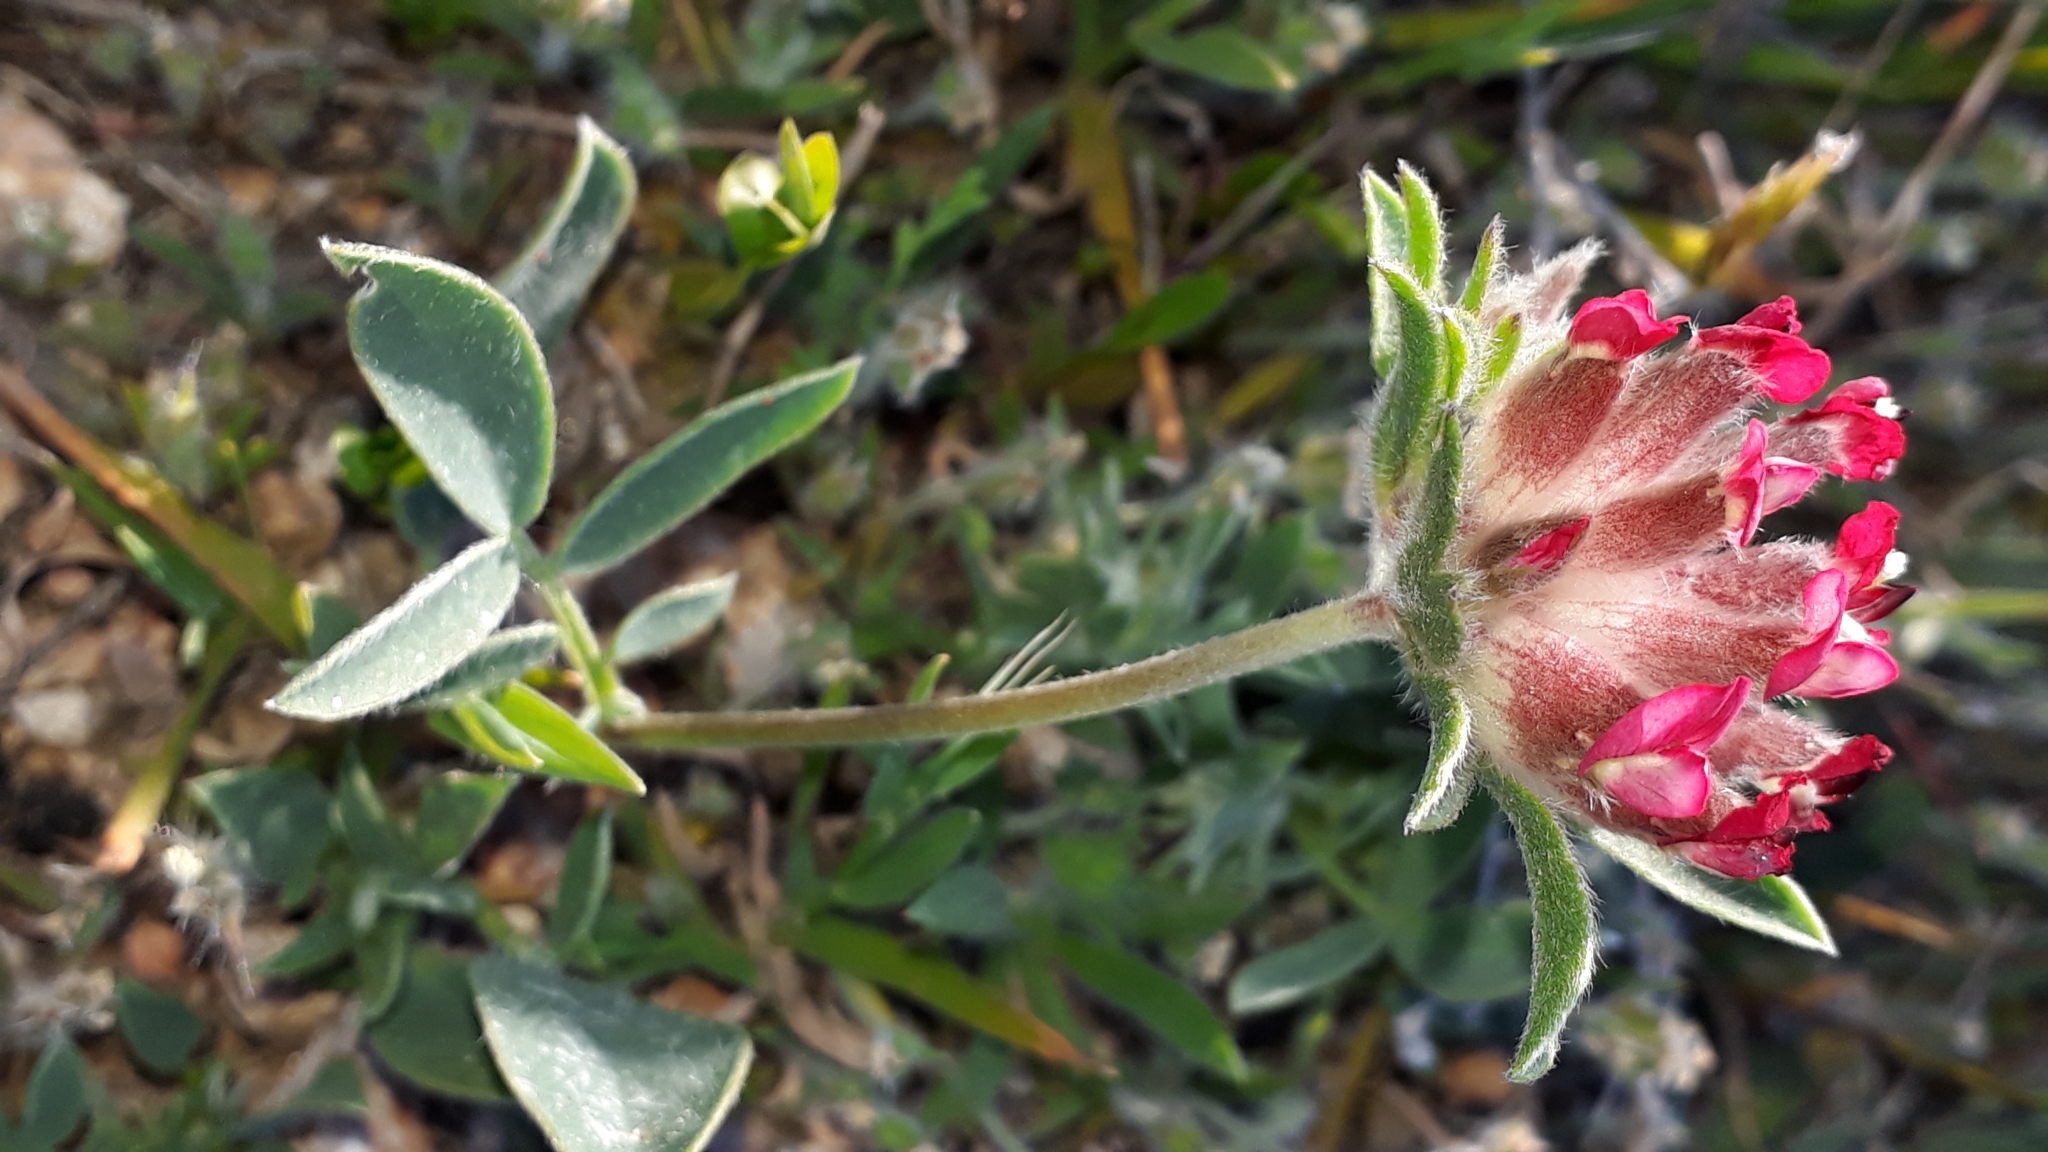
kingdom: Plantae
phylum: Tracheophyta
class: Magnoliopsida
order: Fabales
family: Fabaceae
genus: Anthyllis
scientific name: Anthyllis vulneraria
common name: Kidney vetch
